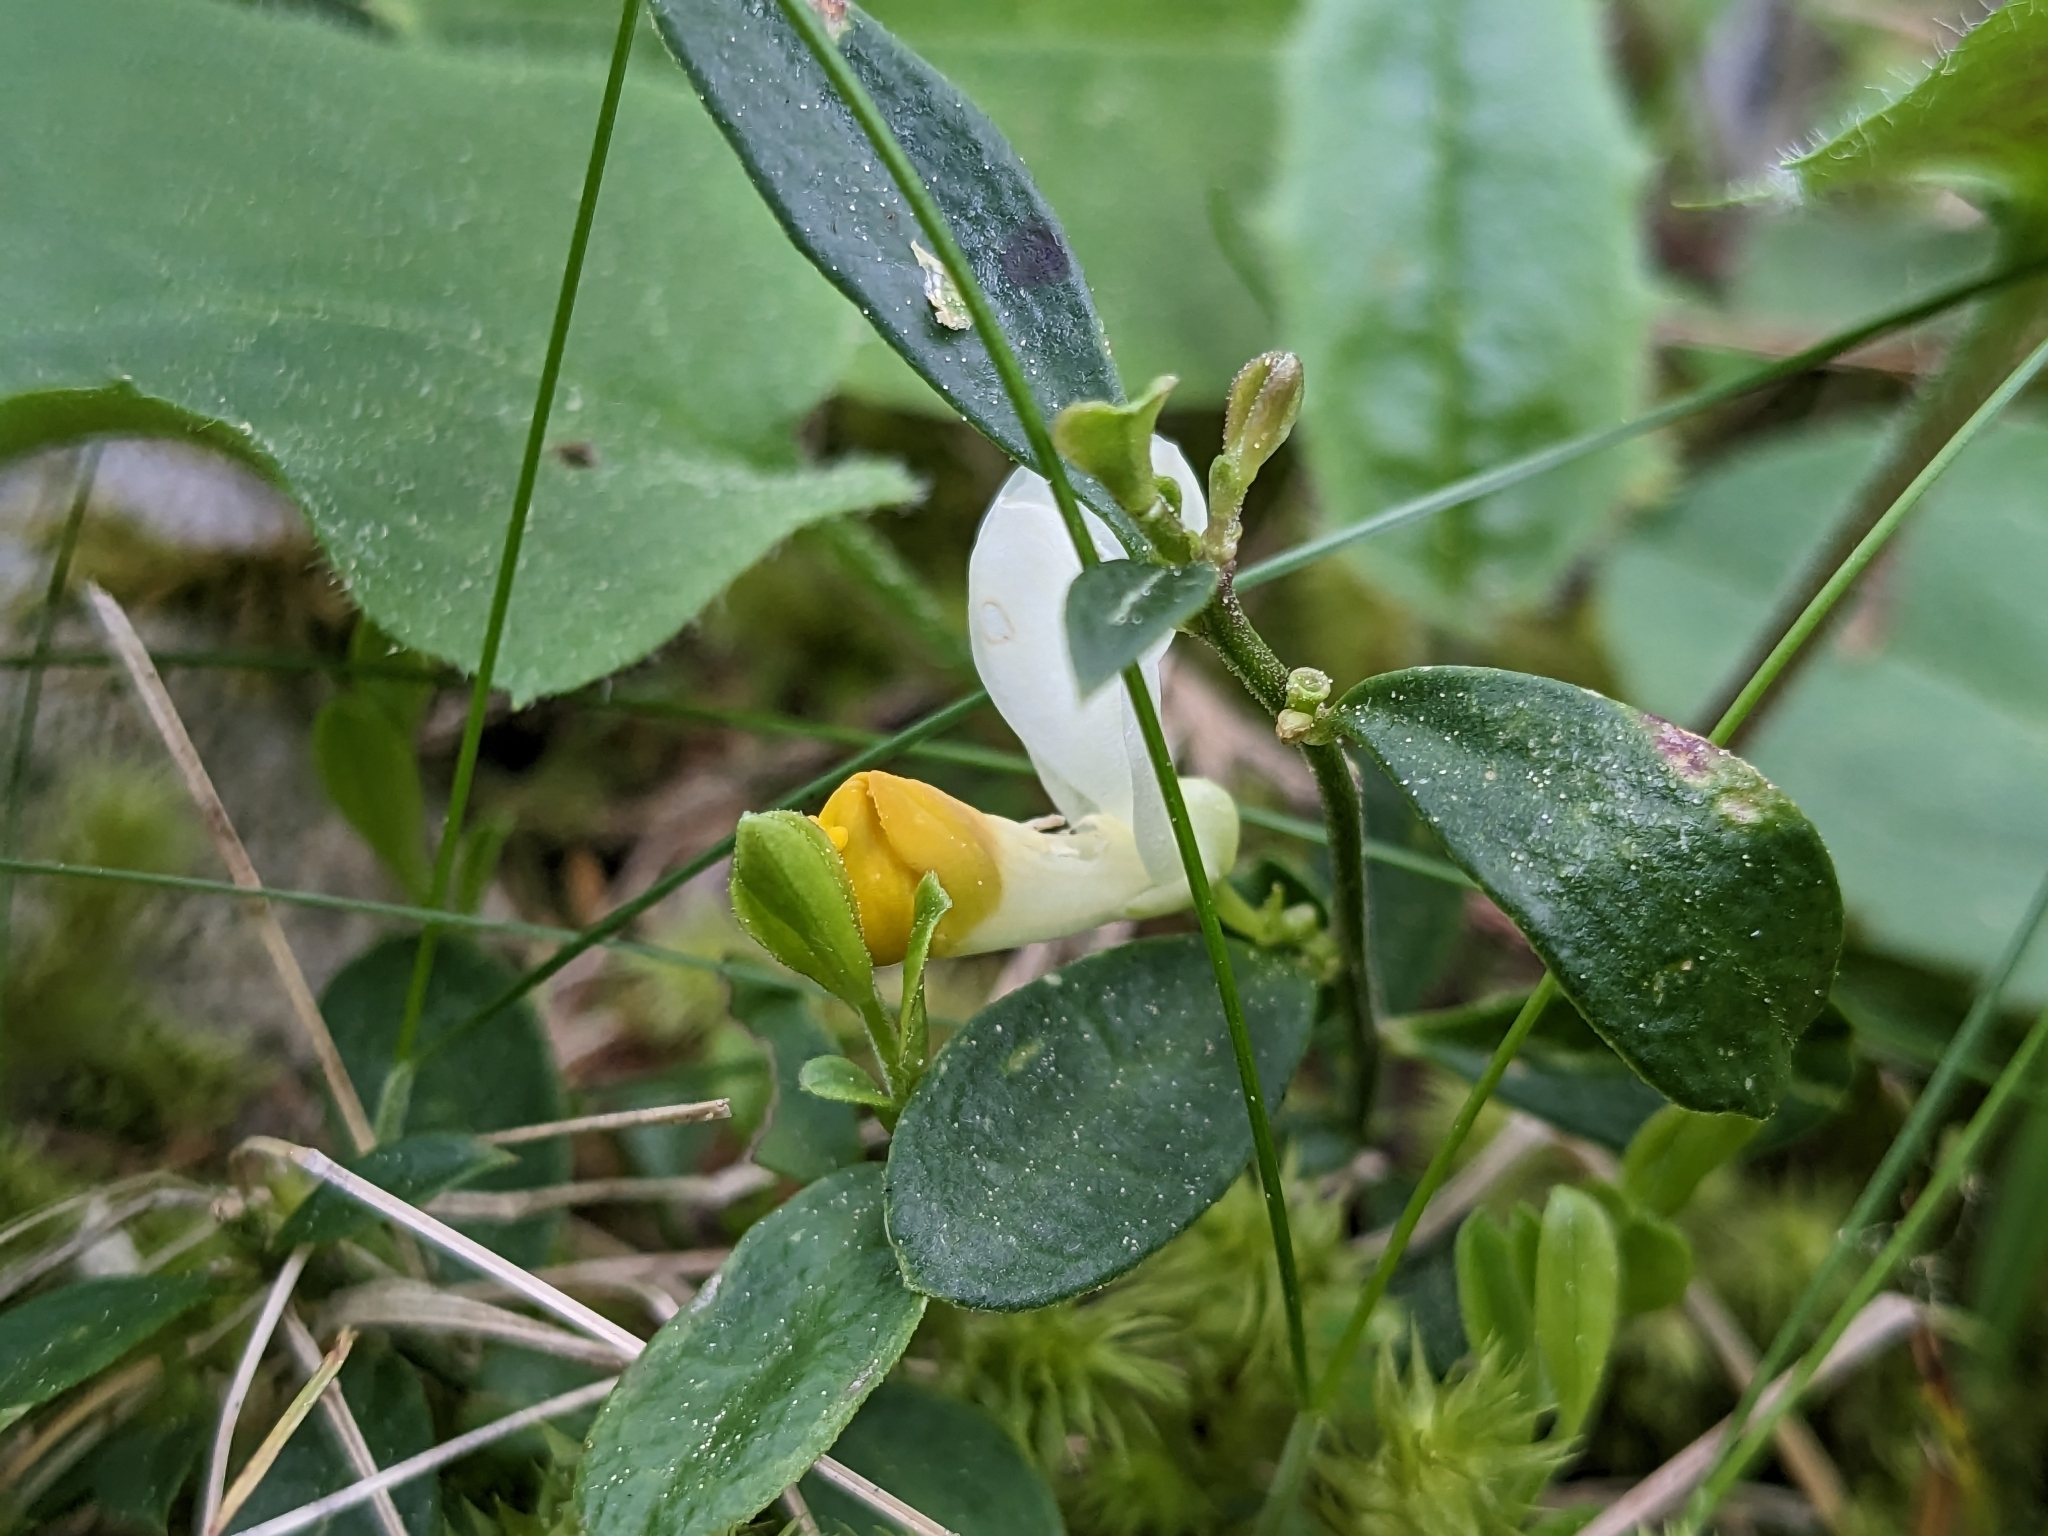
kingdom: Plantae
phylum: Tracheophyta
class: Magnoliopsida
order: Fabales
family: Polygalaceae
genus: Polygaloides
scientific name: Polygaloides chamaebuxus
